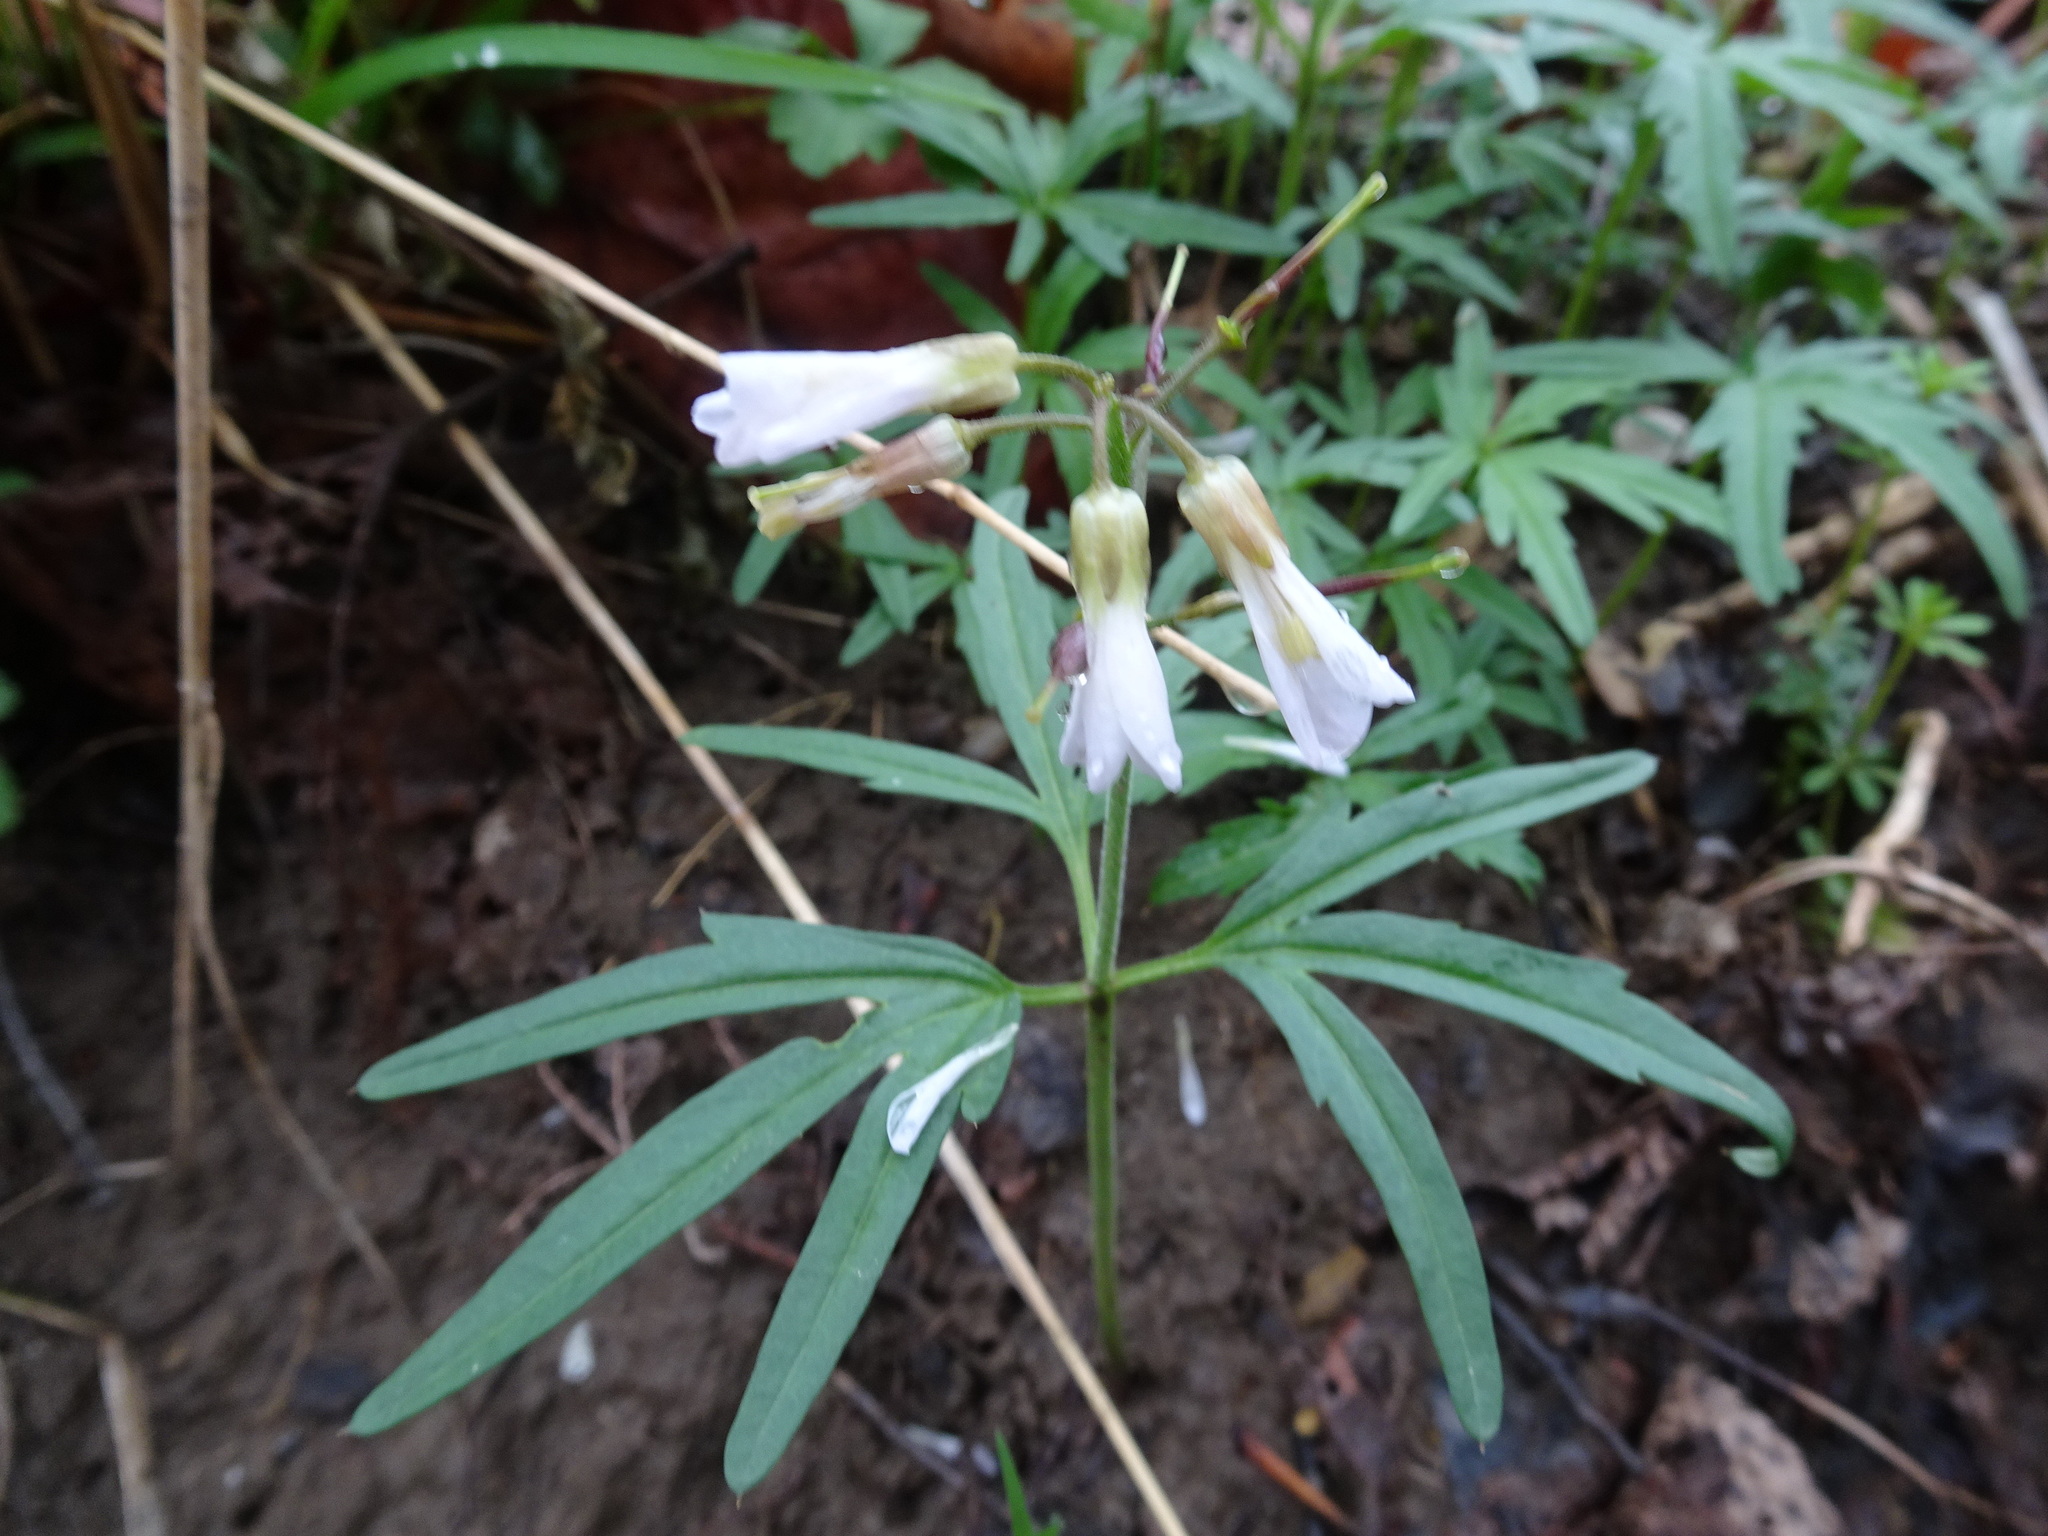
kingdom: Plantae
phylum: Tracheophyta
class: Magnoliopsida
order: Brassicales
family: Brassicaceae
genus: Cardamine
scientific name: Cardamine concatenata
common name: Cut-leaf toothcup
